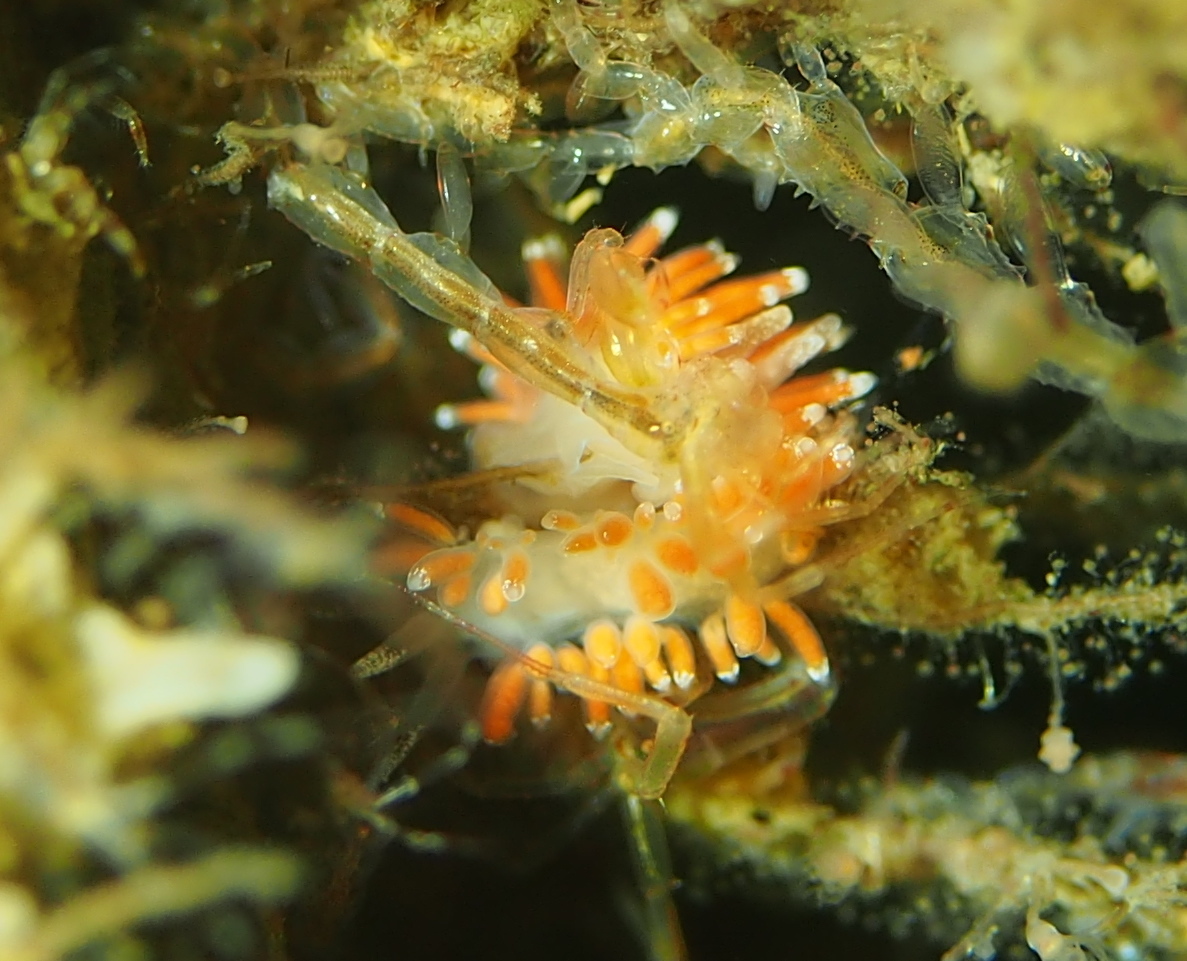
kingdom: Animalia
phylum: Mollusca
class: Gastropoda
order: Nudibranchia
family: Coryphellidae
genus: Coryphella
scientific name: Coryphella gracilis
